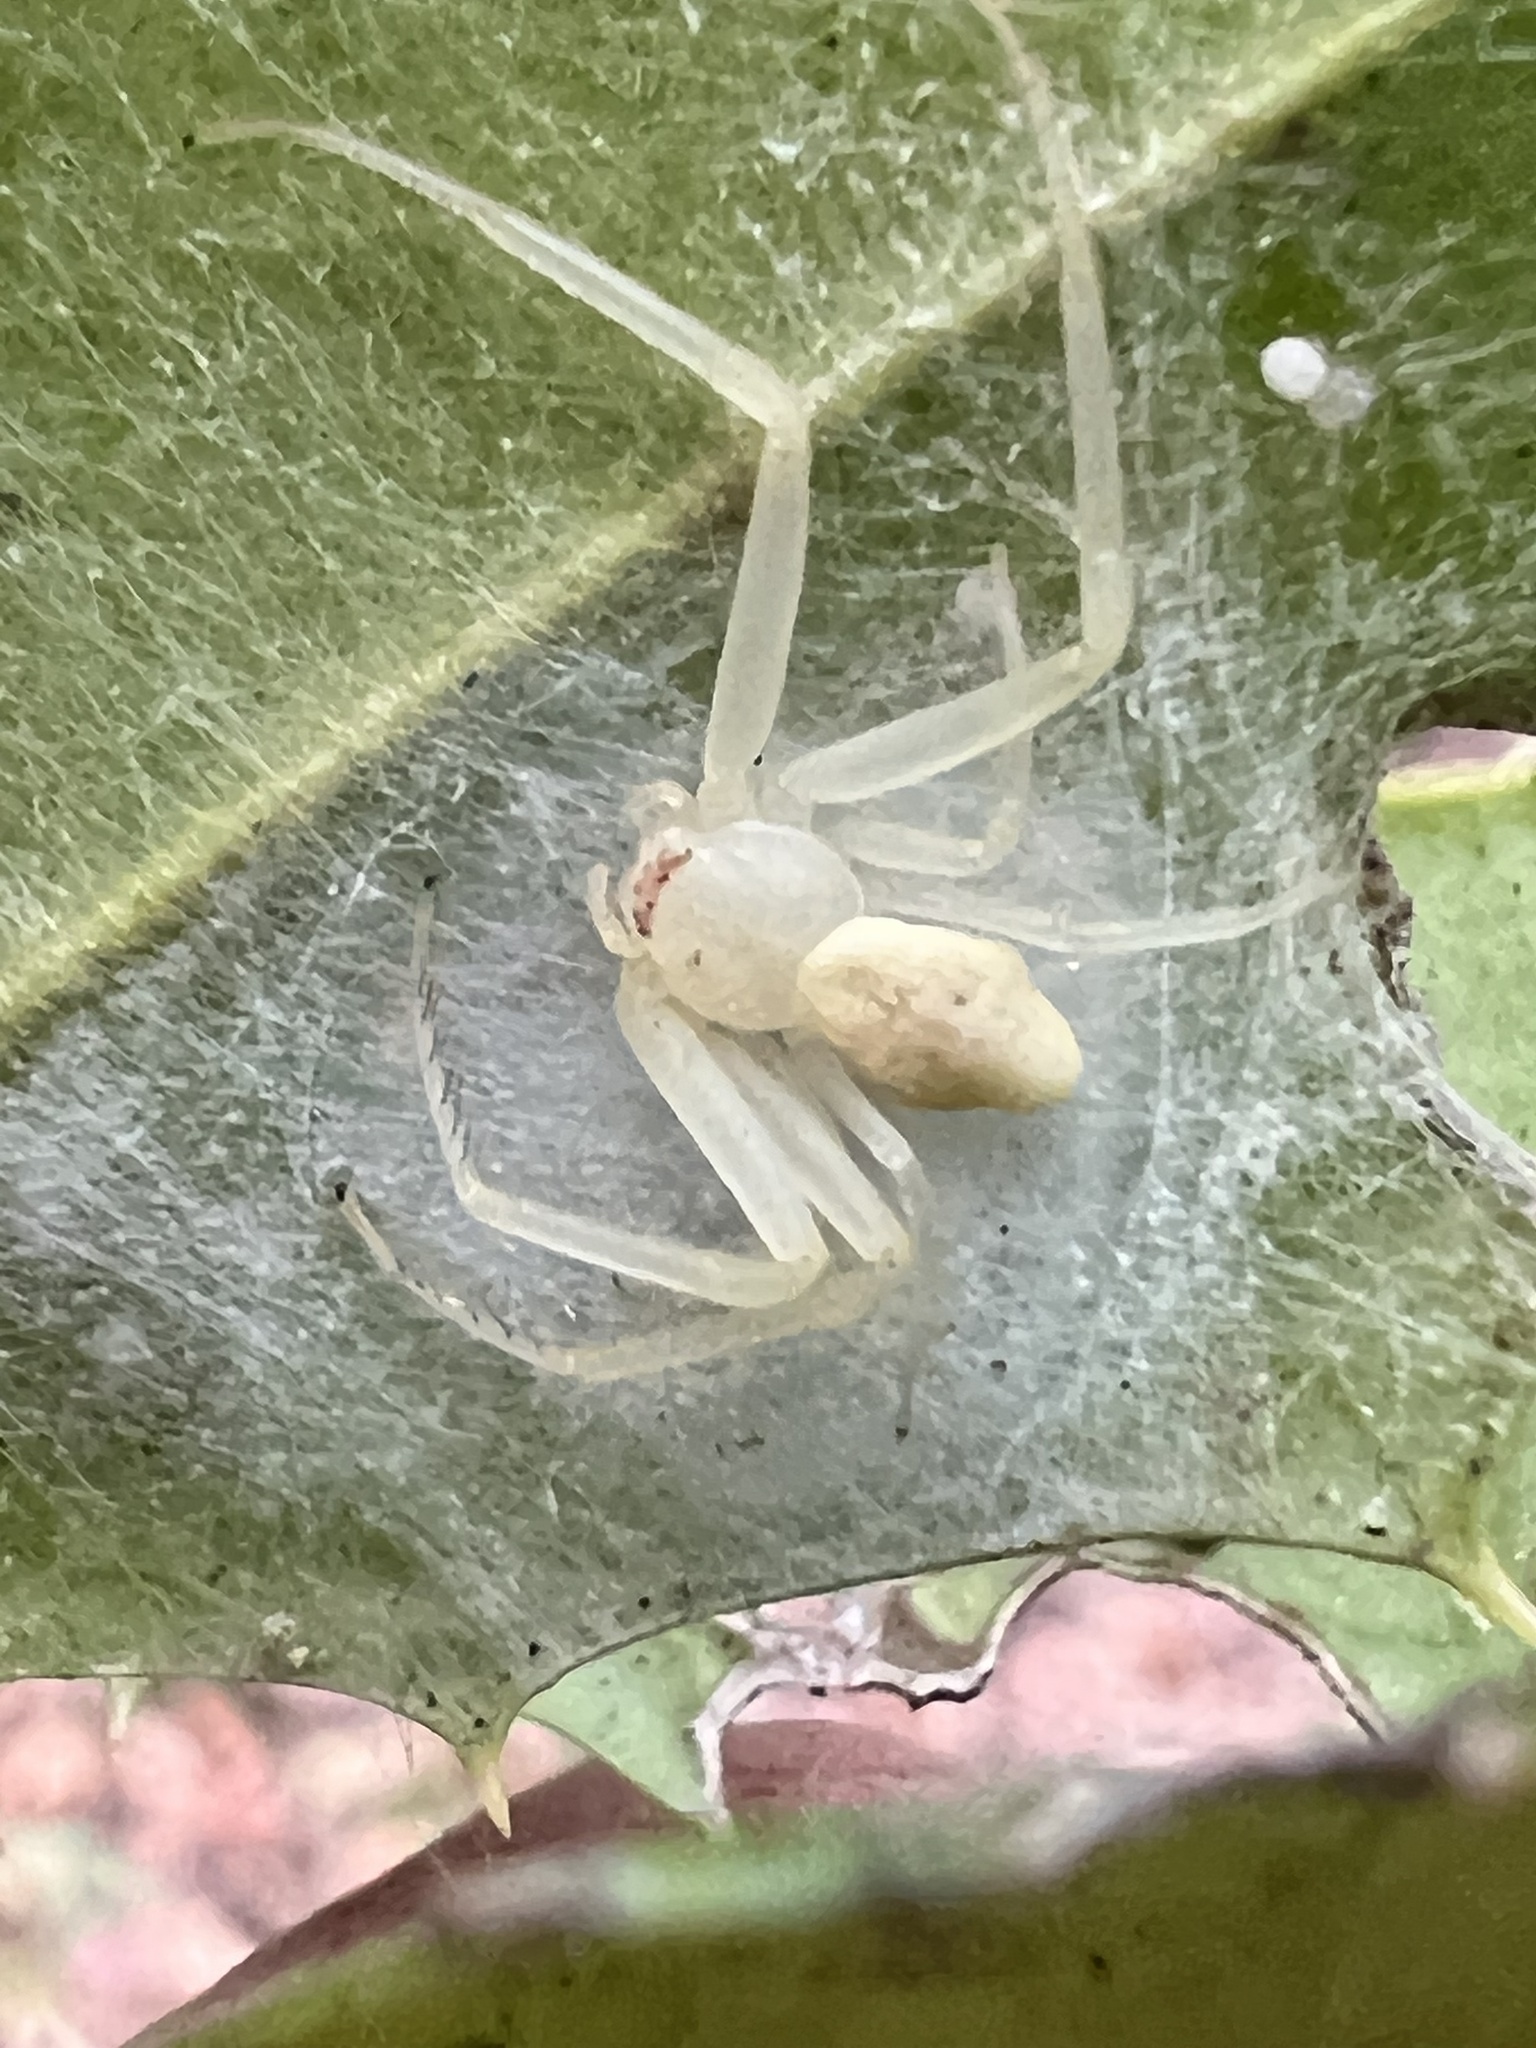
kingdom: Animalia
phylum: Arthropoda
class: Arachnida
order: Araneae
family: Thomisidae
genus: Misumessus
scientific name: Misumessus oblongus
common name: American green crab spider
